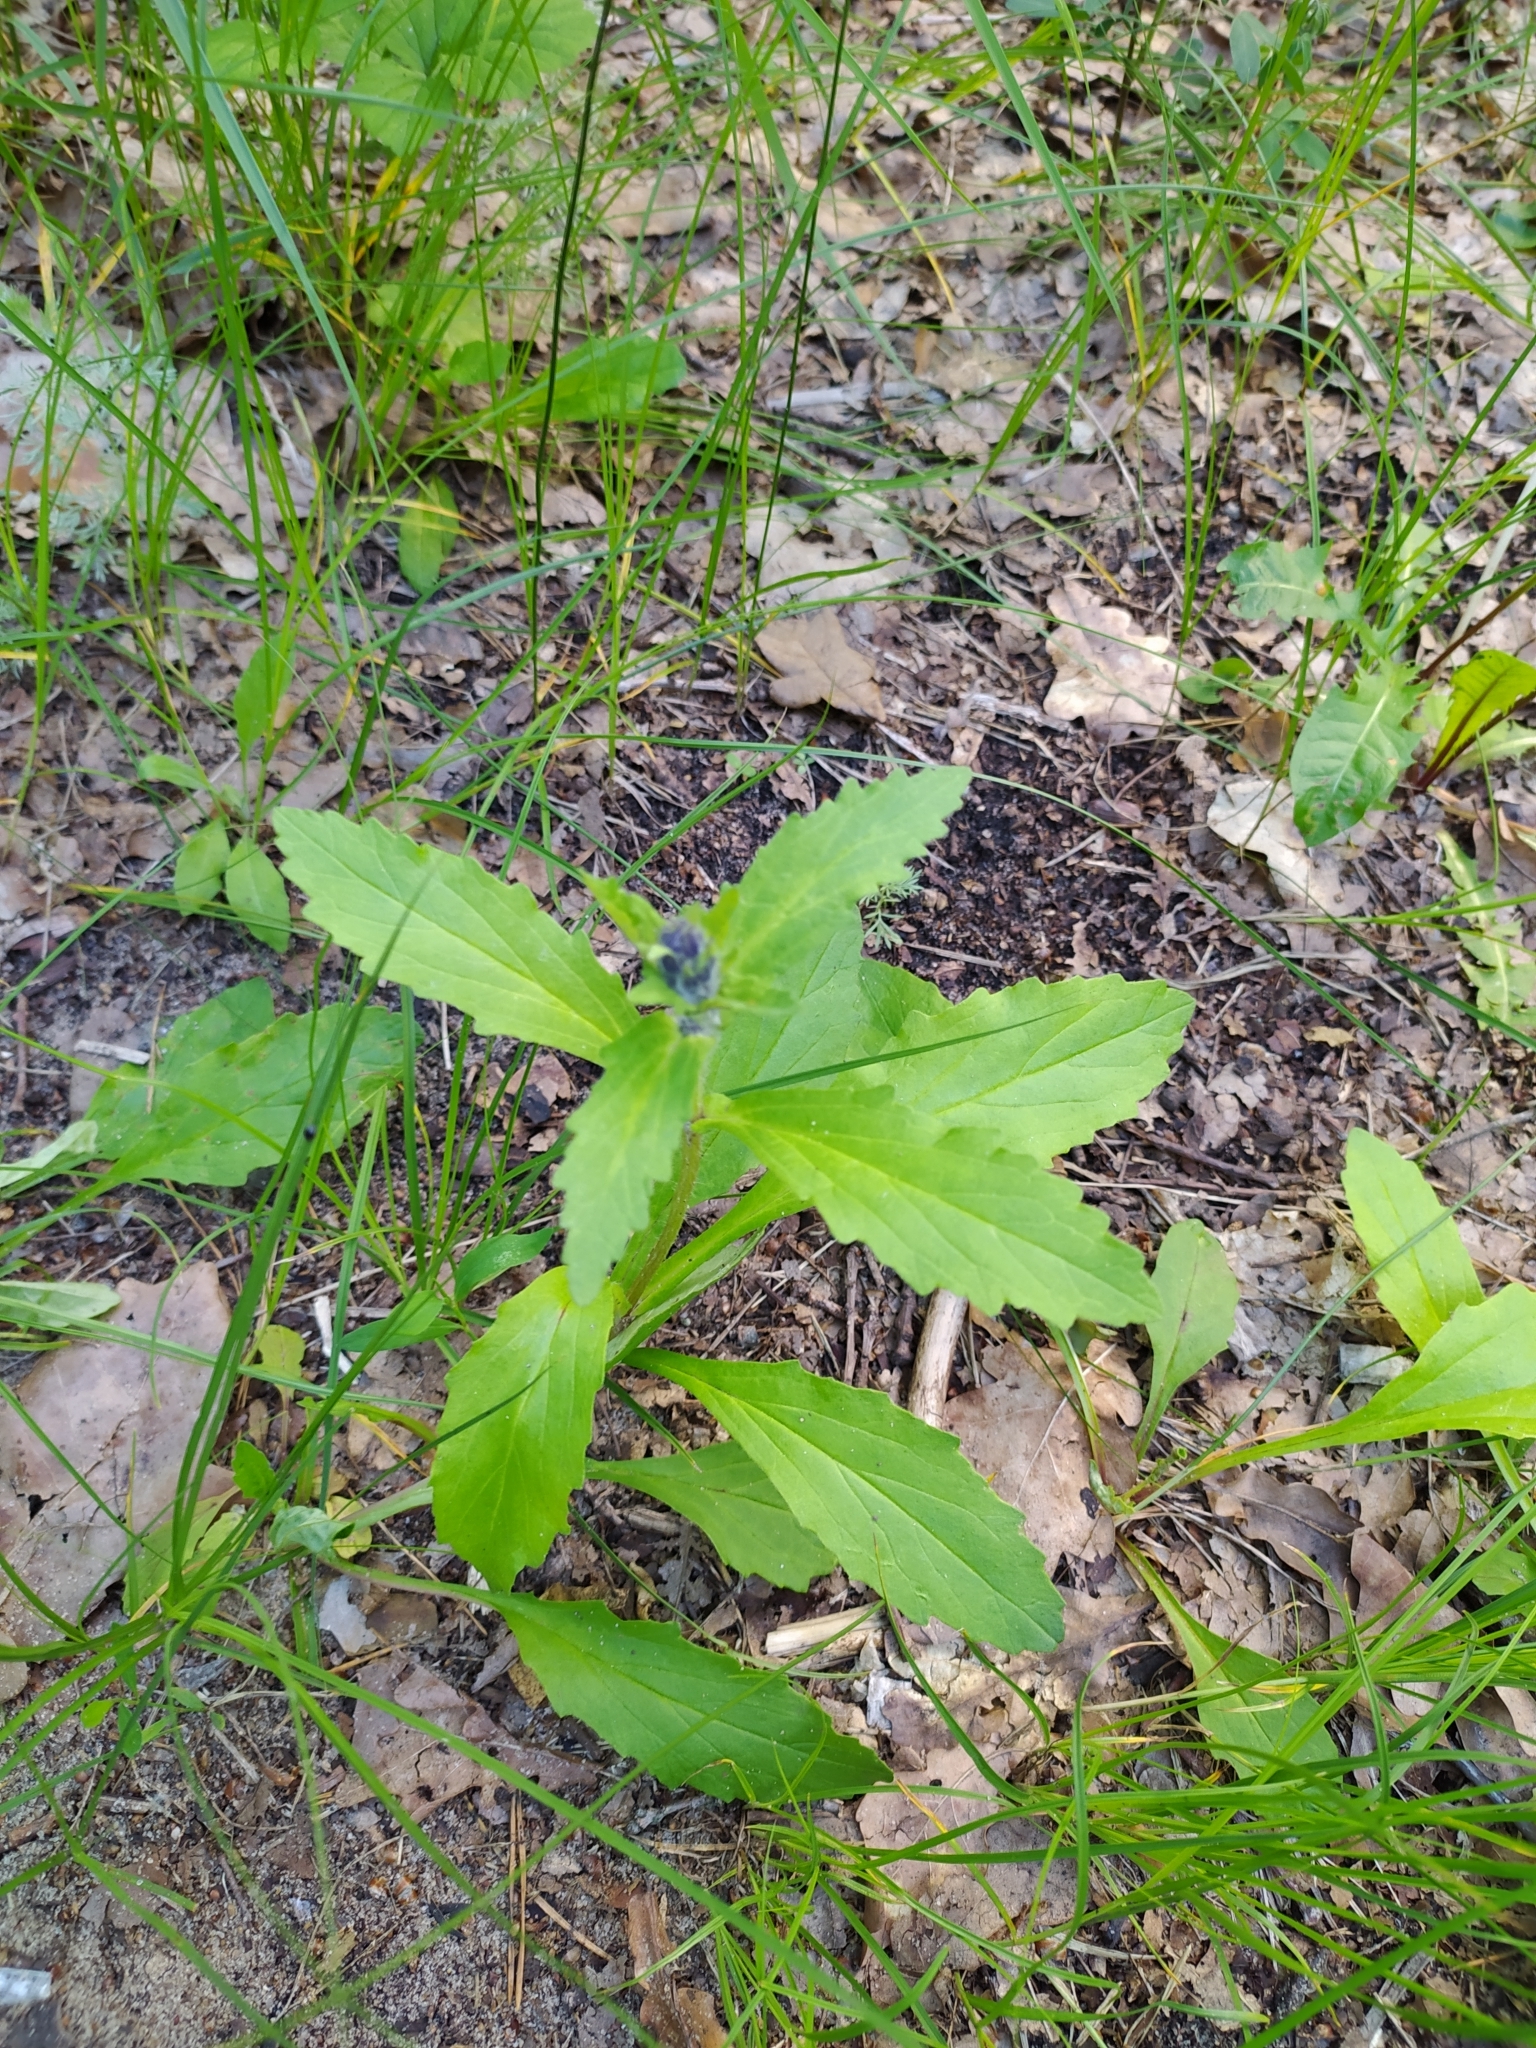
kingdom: Plantae
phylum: Tracheophyta
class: Magnoliopsida
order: Lamiales
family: Lamiaceae
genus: Ajuga
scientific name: Ajuga genevensis
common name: Blue bugle
